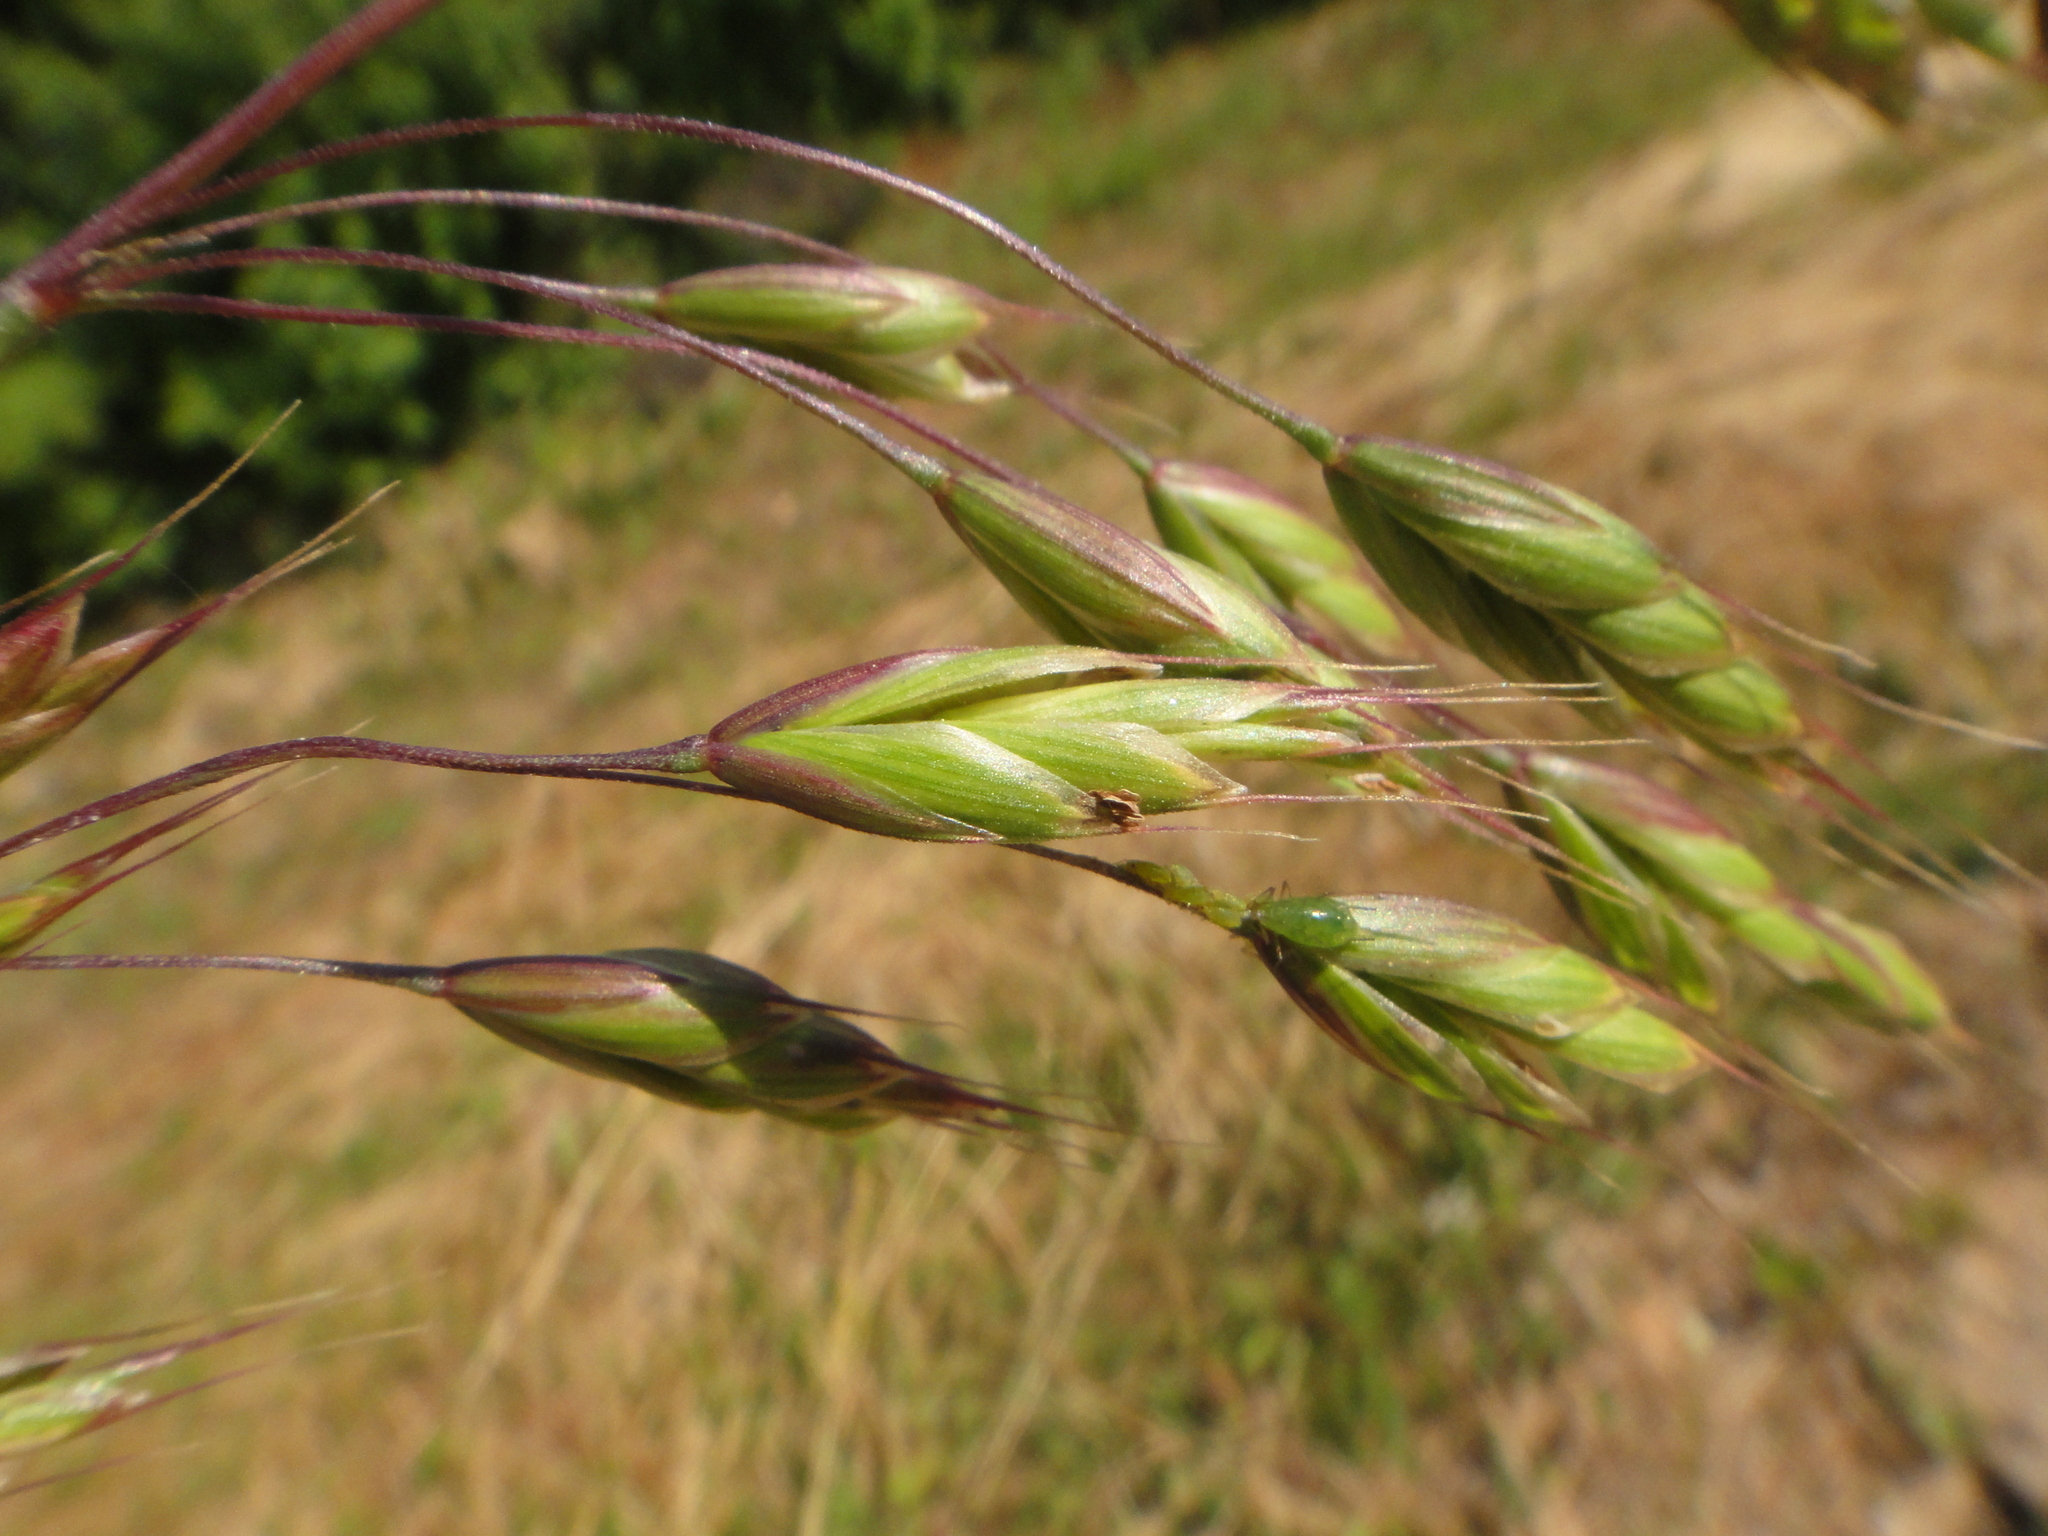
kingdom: Plantae
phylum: Tracheophyta
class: Liliopsida
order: Poales
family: Poaceae
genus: Bromus
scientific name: Bromus commutatus
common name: Meadow brome
